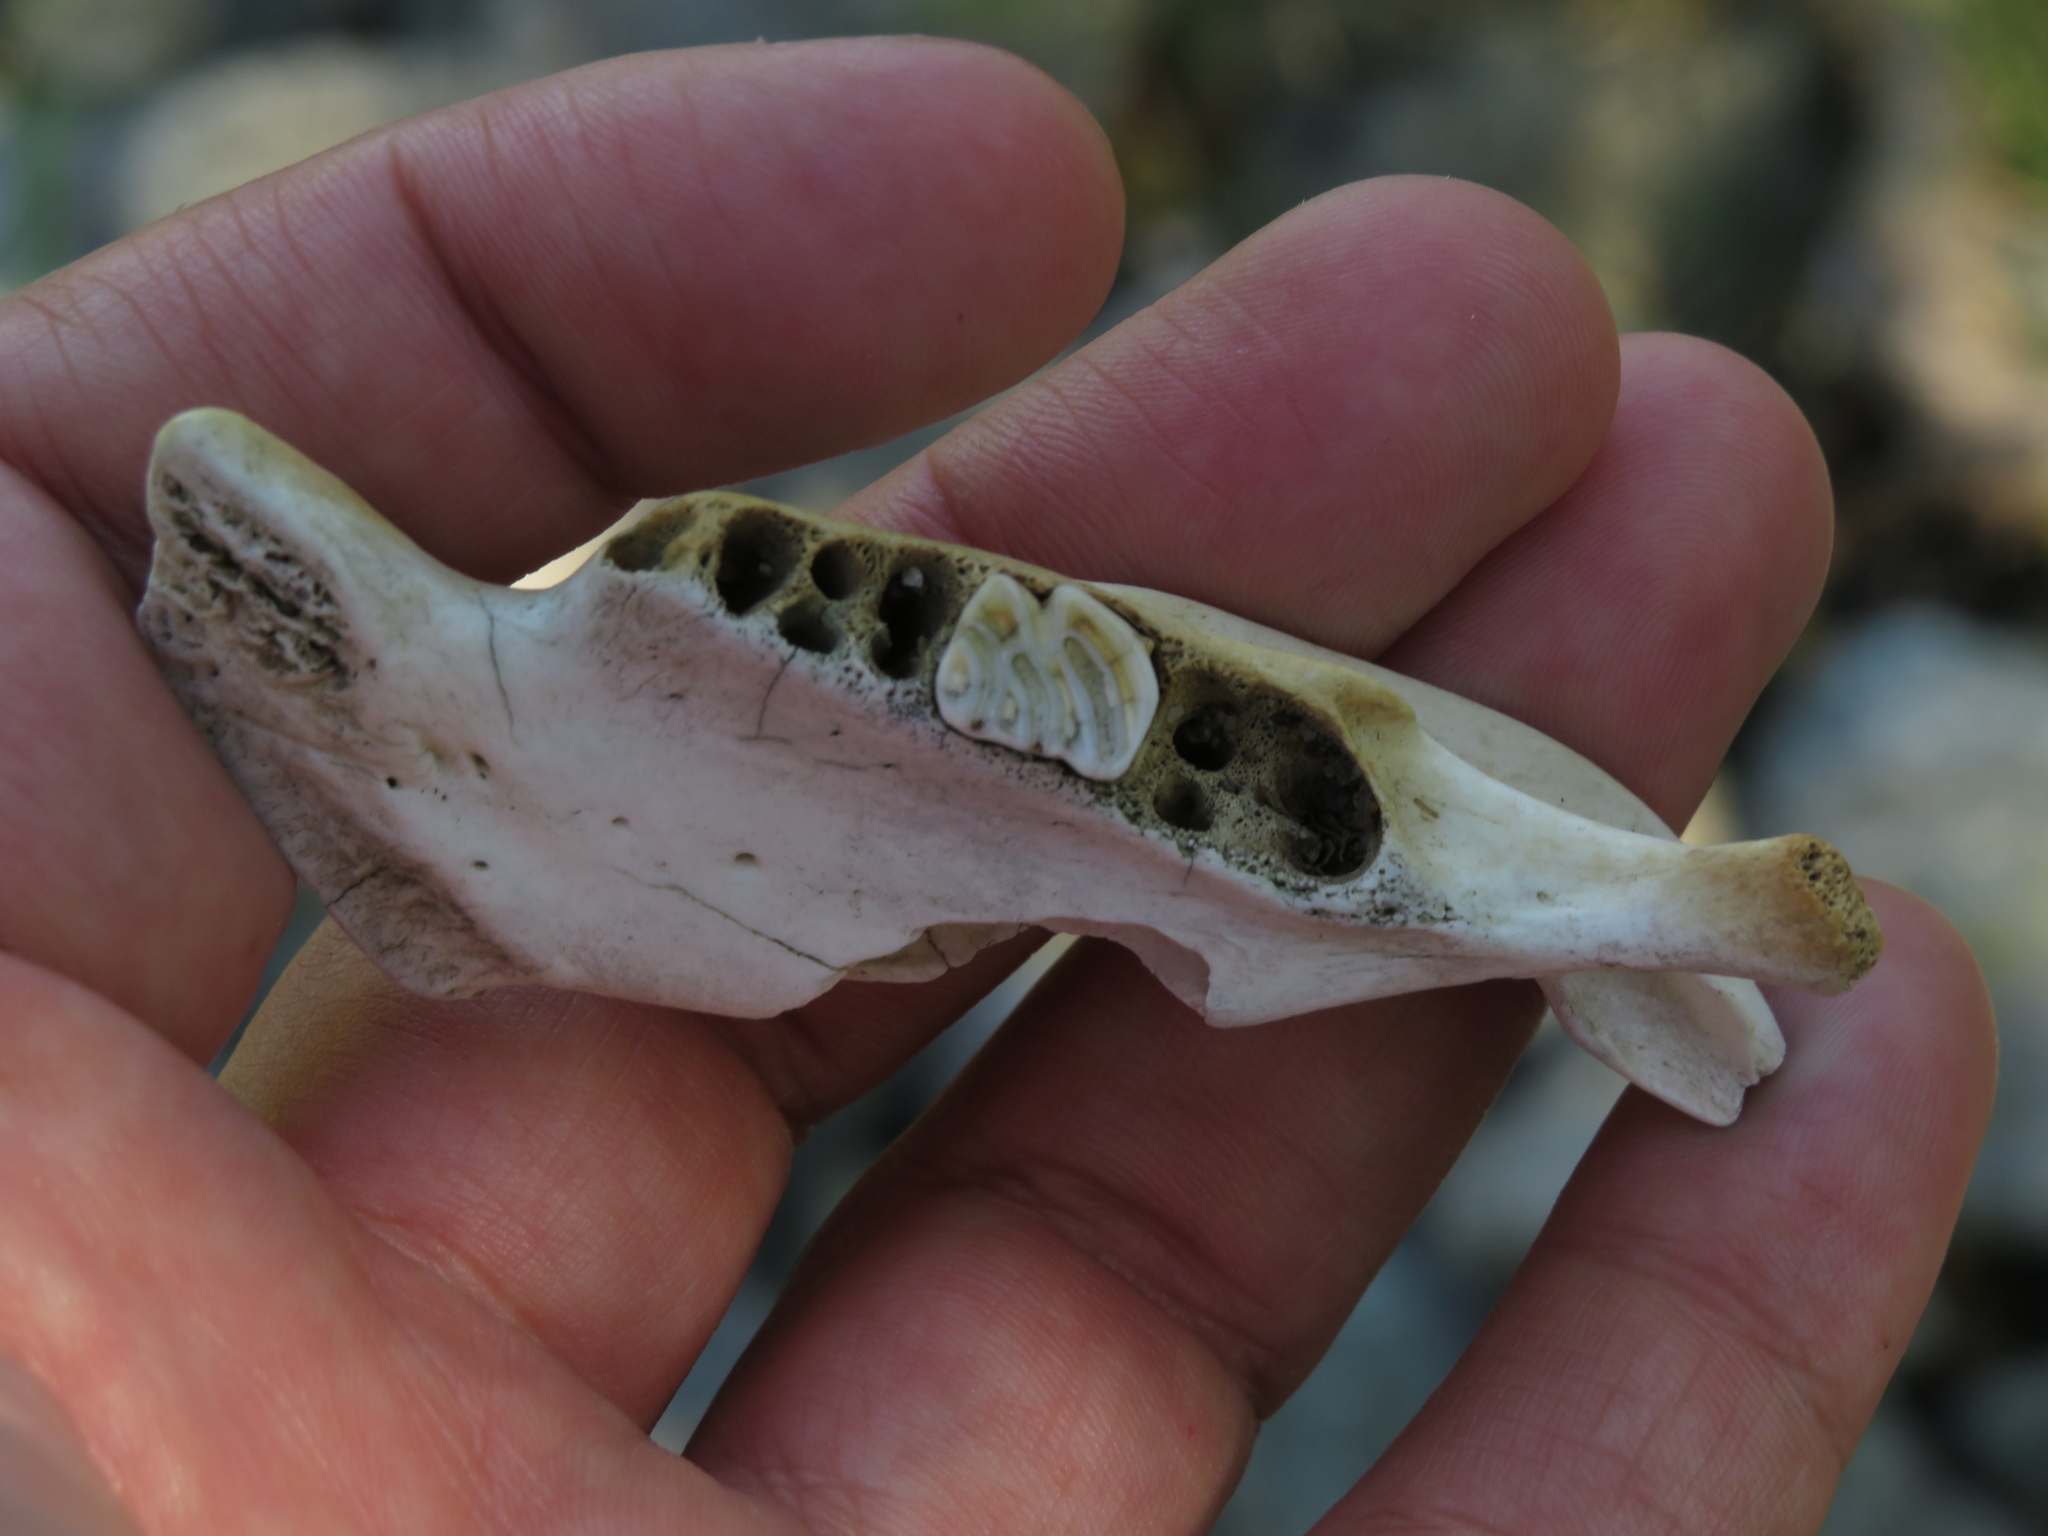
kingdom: Animalia
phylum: Chordata
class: Mammalia
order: Rodentia
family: Myocastoridae
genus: Myocastor
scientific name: Myocastor coypus
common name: Coypu
